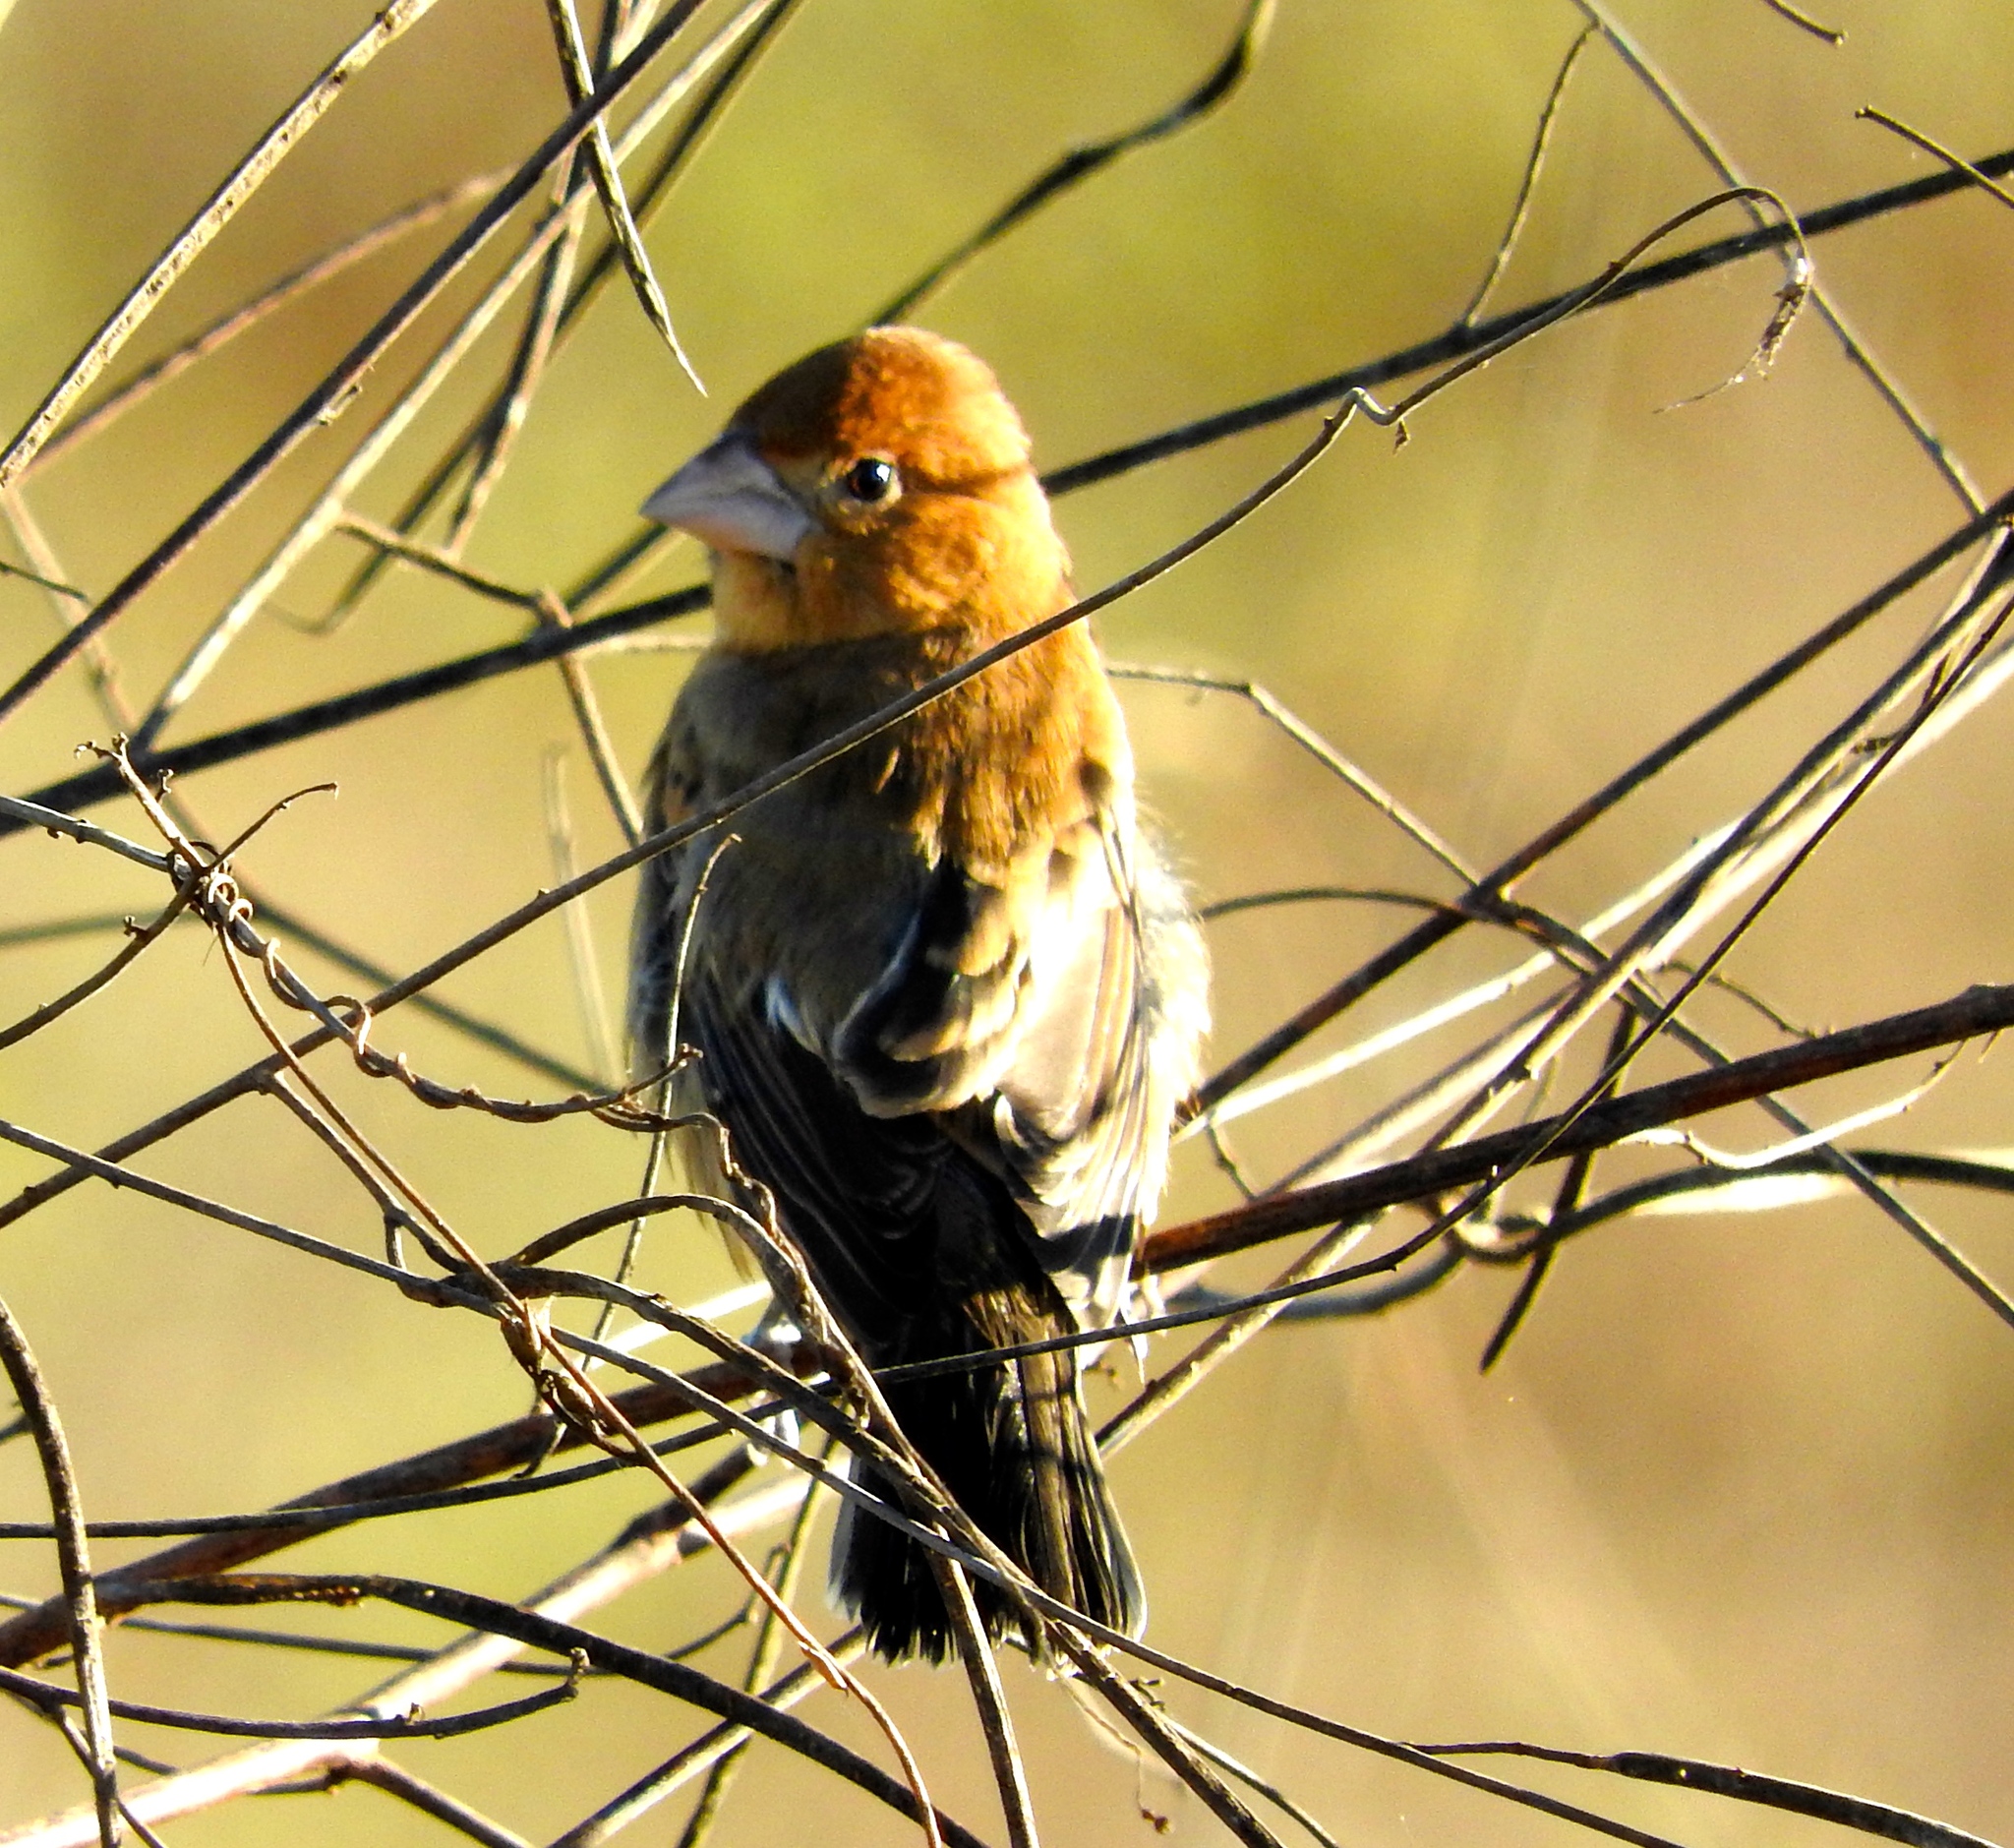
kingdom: Animalia
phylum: Chordata
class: Aves
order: Passeriformes
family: Cardinalidae
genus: Passerina
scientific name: Passerina caerulea
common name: Blue grosbeak
